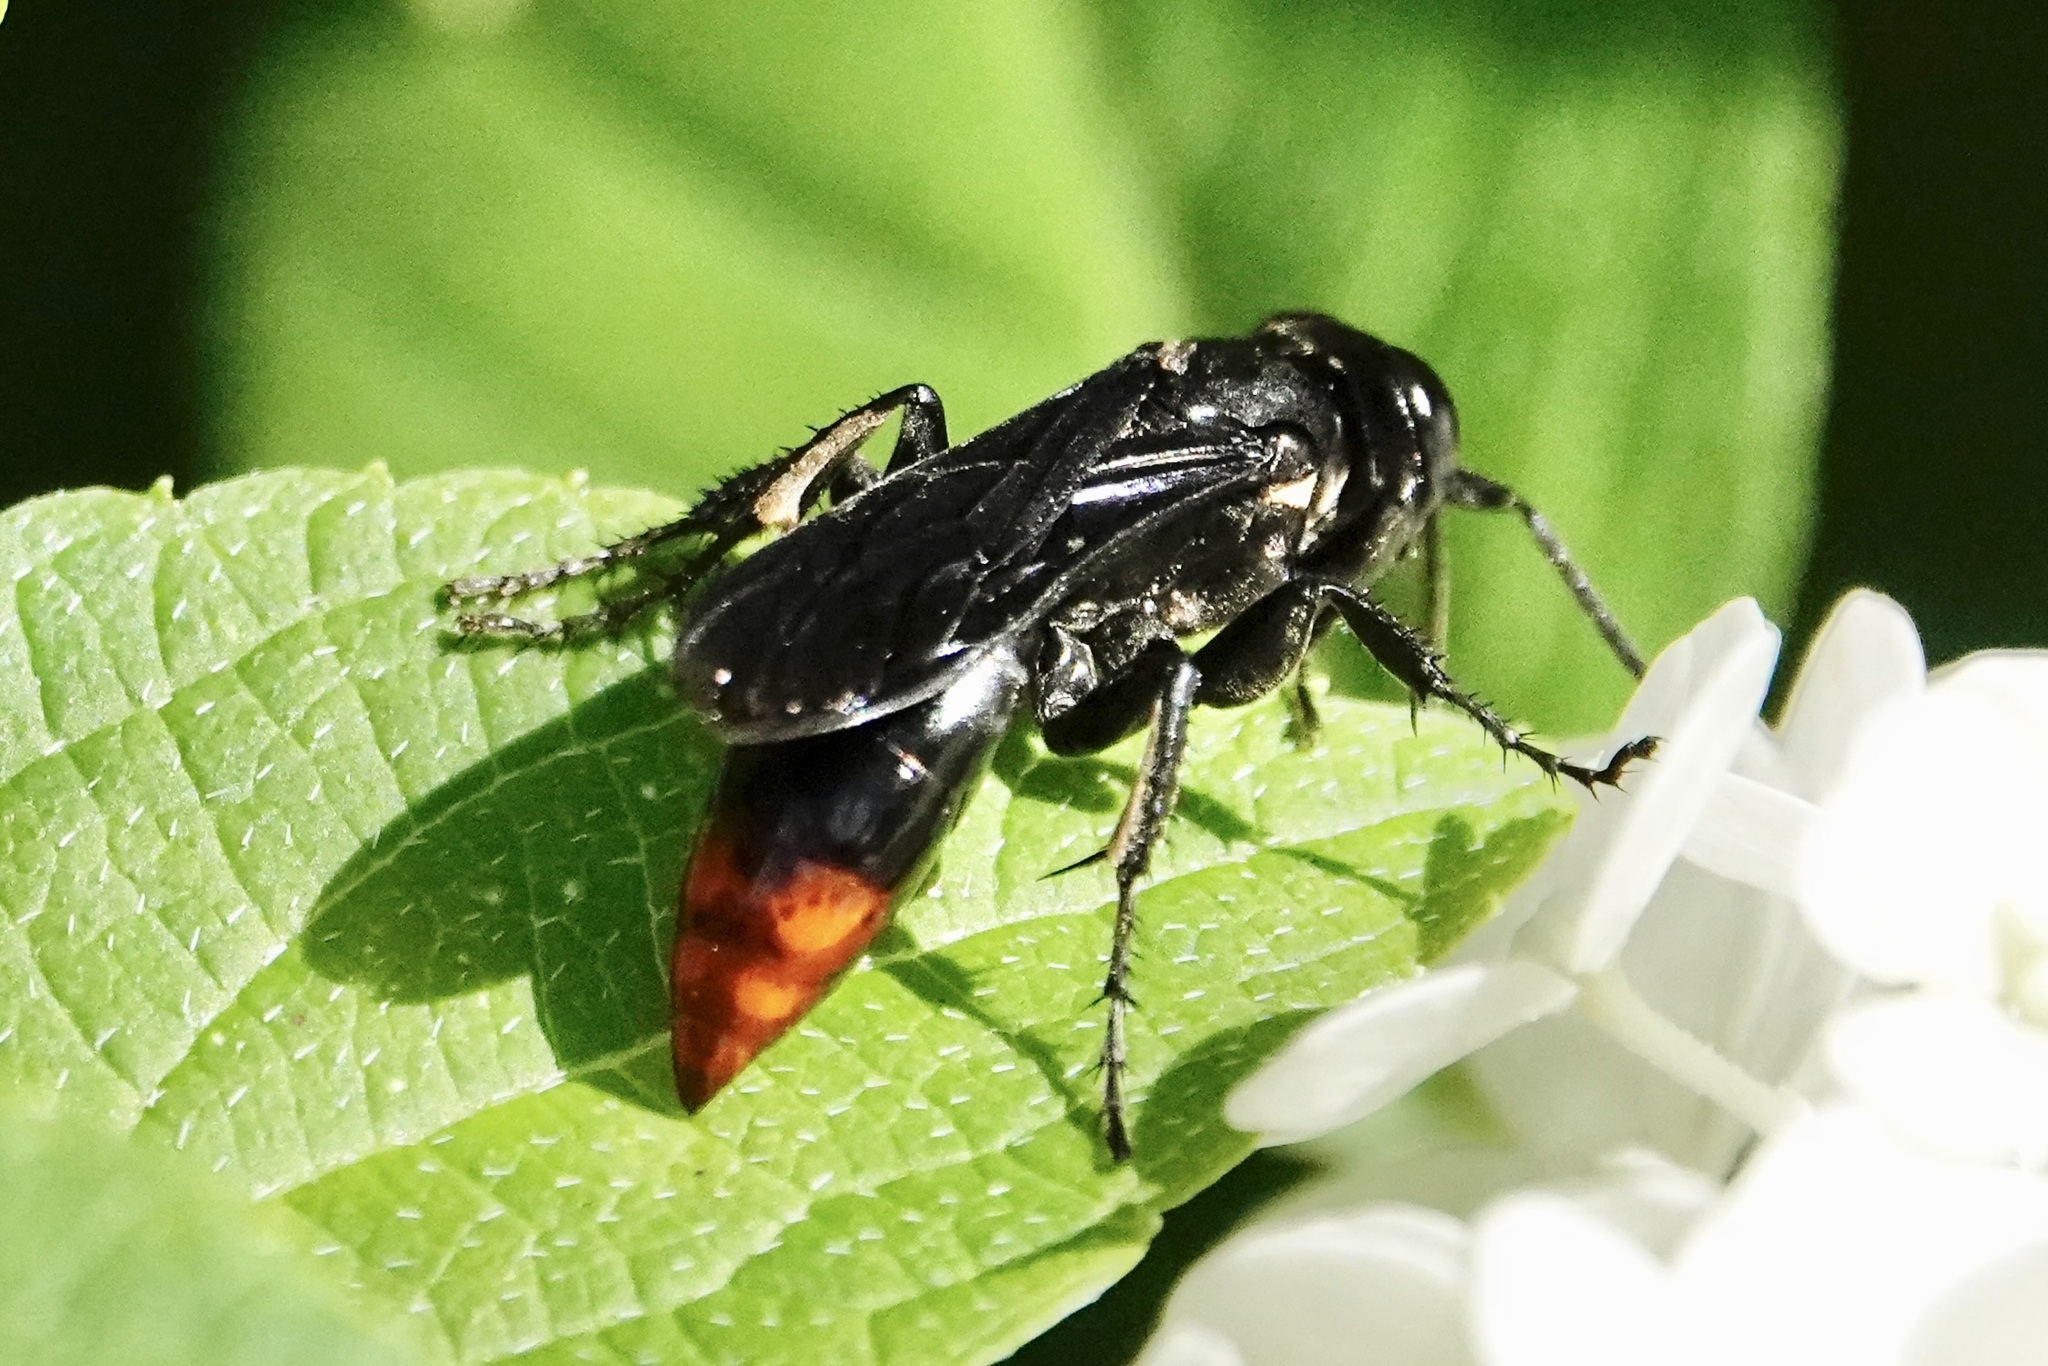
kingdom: Animalia
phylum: Arthropoda
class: Insecta
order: Hymenoptera
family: Crabronidae
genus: Larra
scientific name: Larra analis
